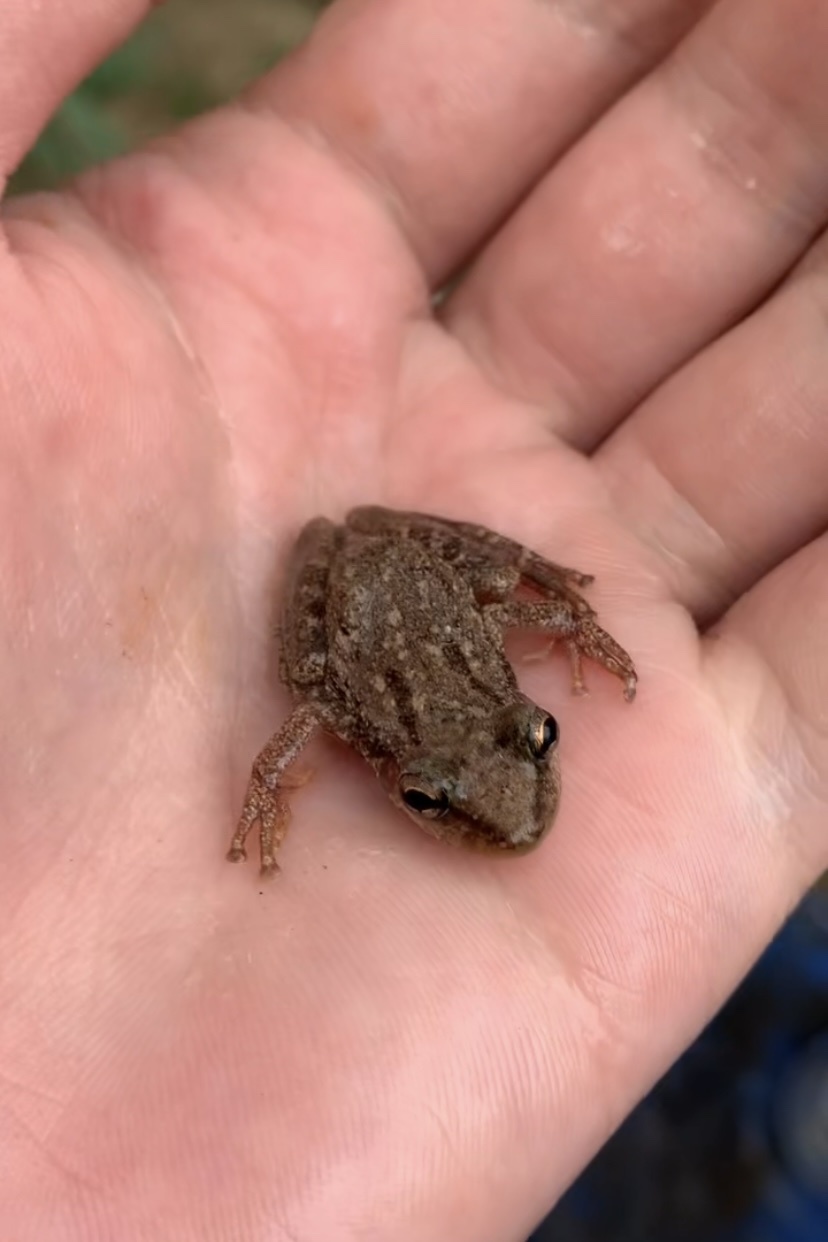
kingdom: Animalia
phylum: Chordata
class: Amphibia
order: Anura
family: Hylidae
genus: Scinax
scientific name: Scinax x-signatus
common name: Venezuela snouted treefrog
